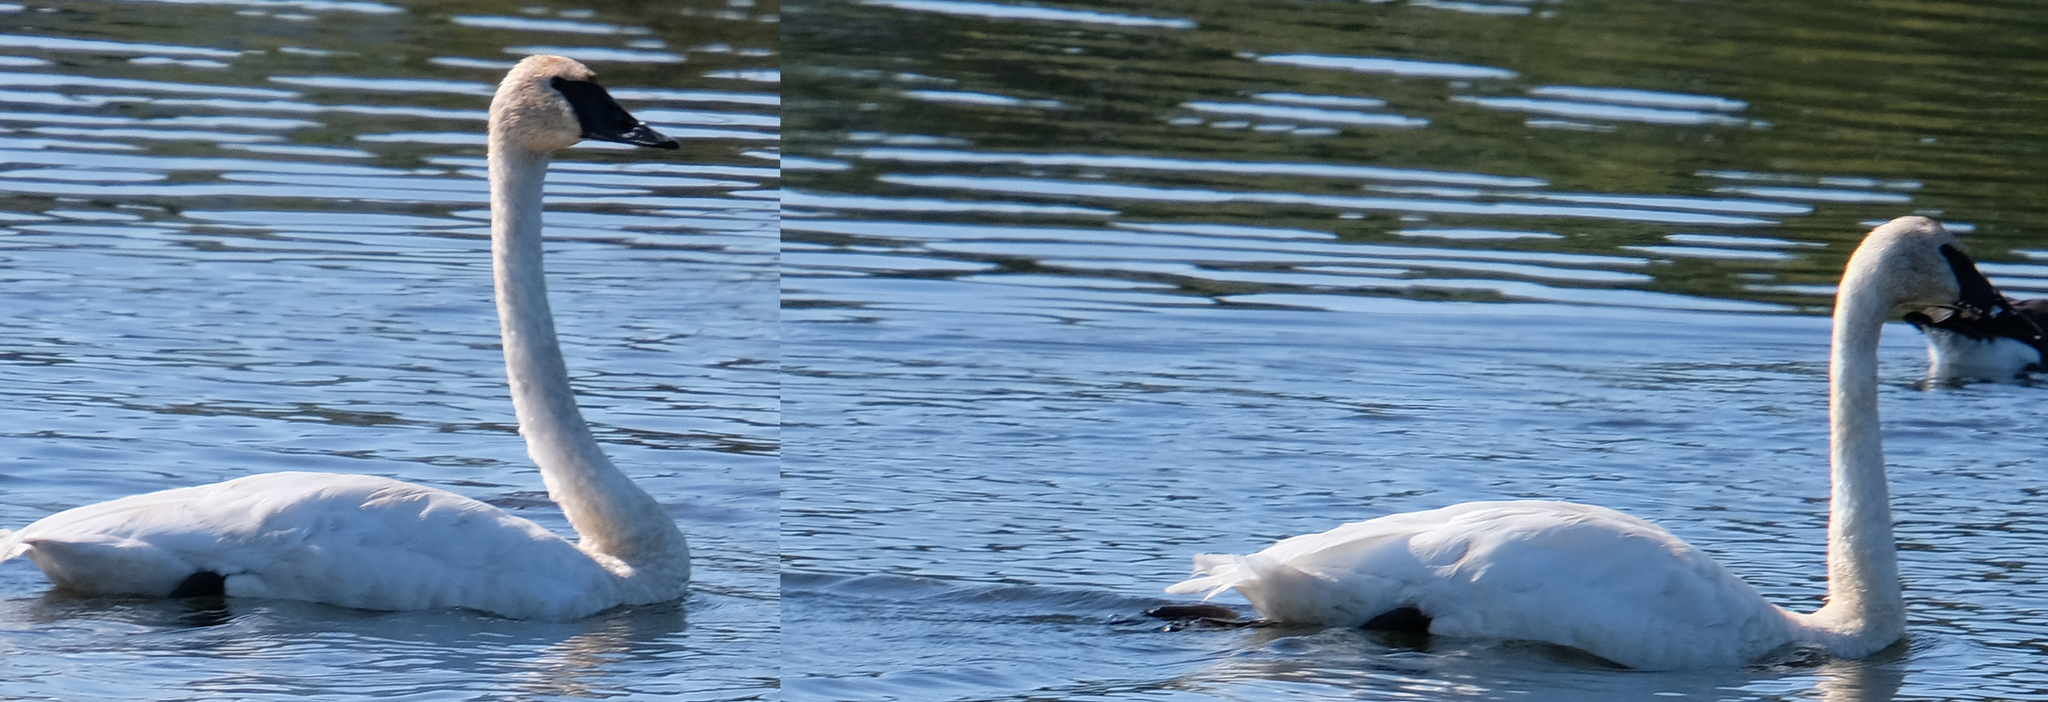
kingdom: Animalia
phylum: Chordata
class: Aves
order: Anseriformes
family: Anatidae
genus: Cygnus
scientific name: Cygnus buccinator
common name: Trumpeter swan
